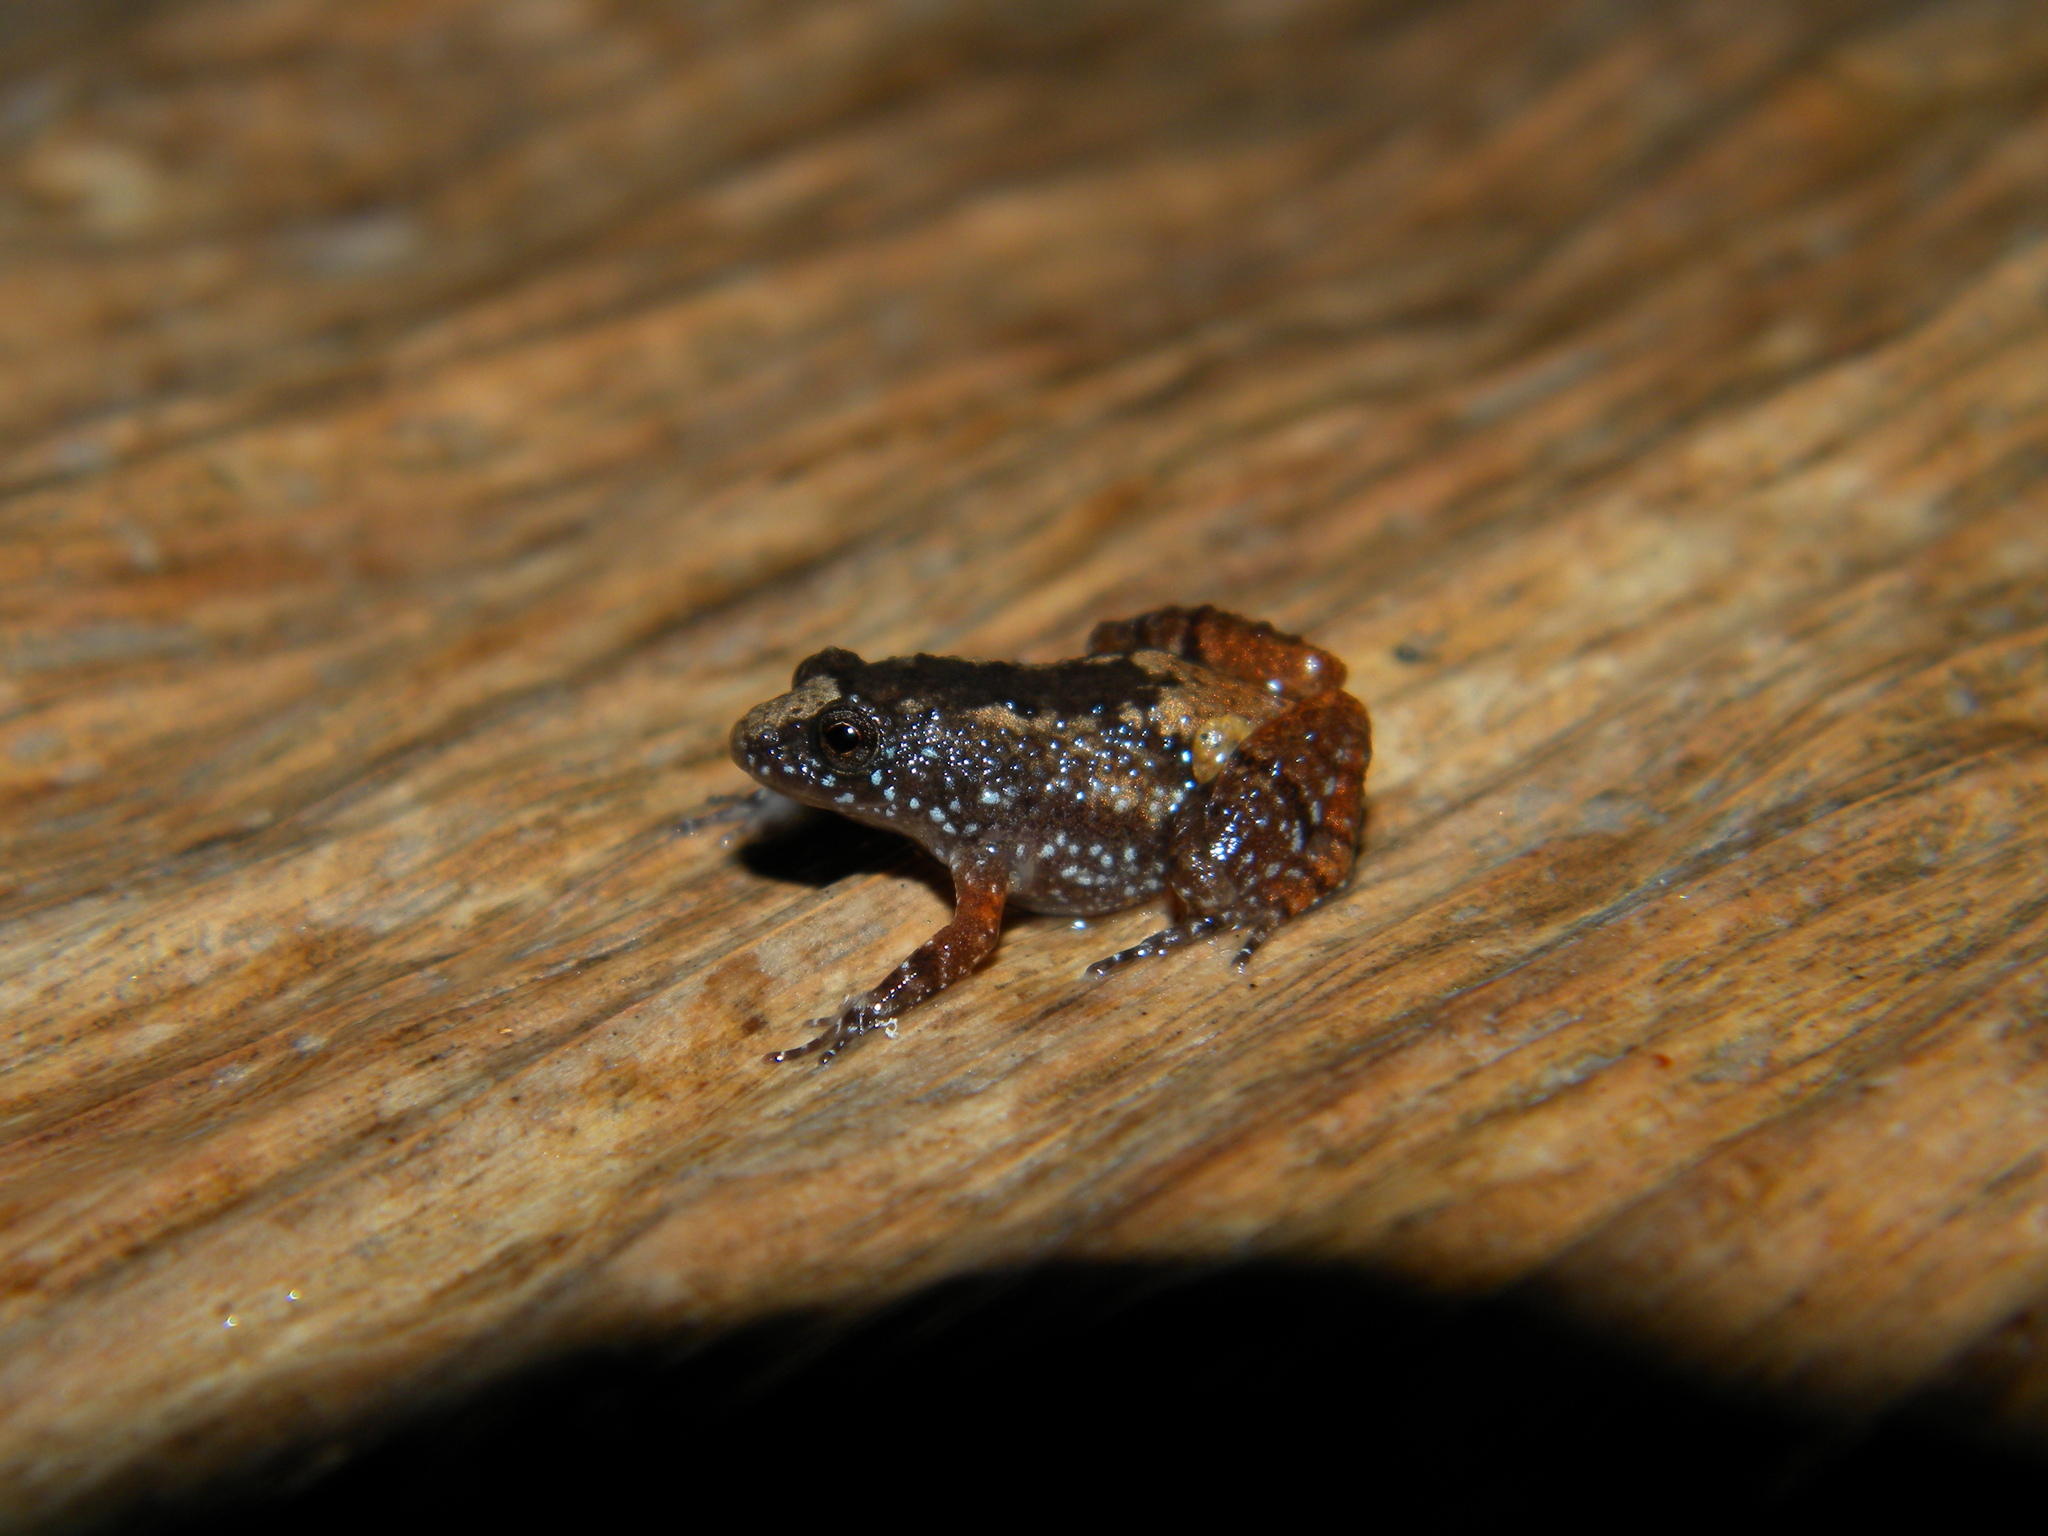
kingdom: Animalia
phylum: Chordata
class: Amphibia
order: Anura
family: Nyctibatrachidae
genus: Nyctibatrachus
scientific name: Nyctibatrachus beddomii
